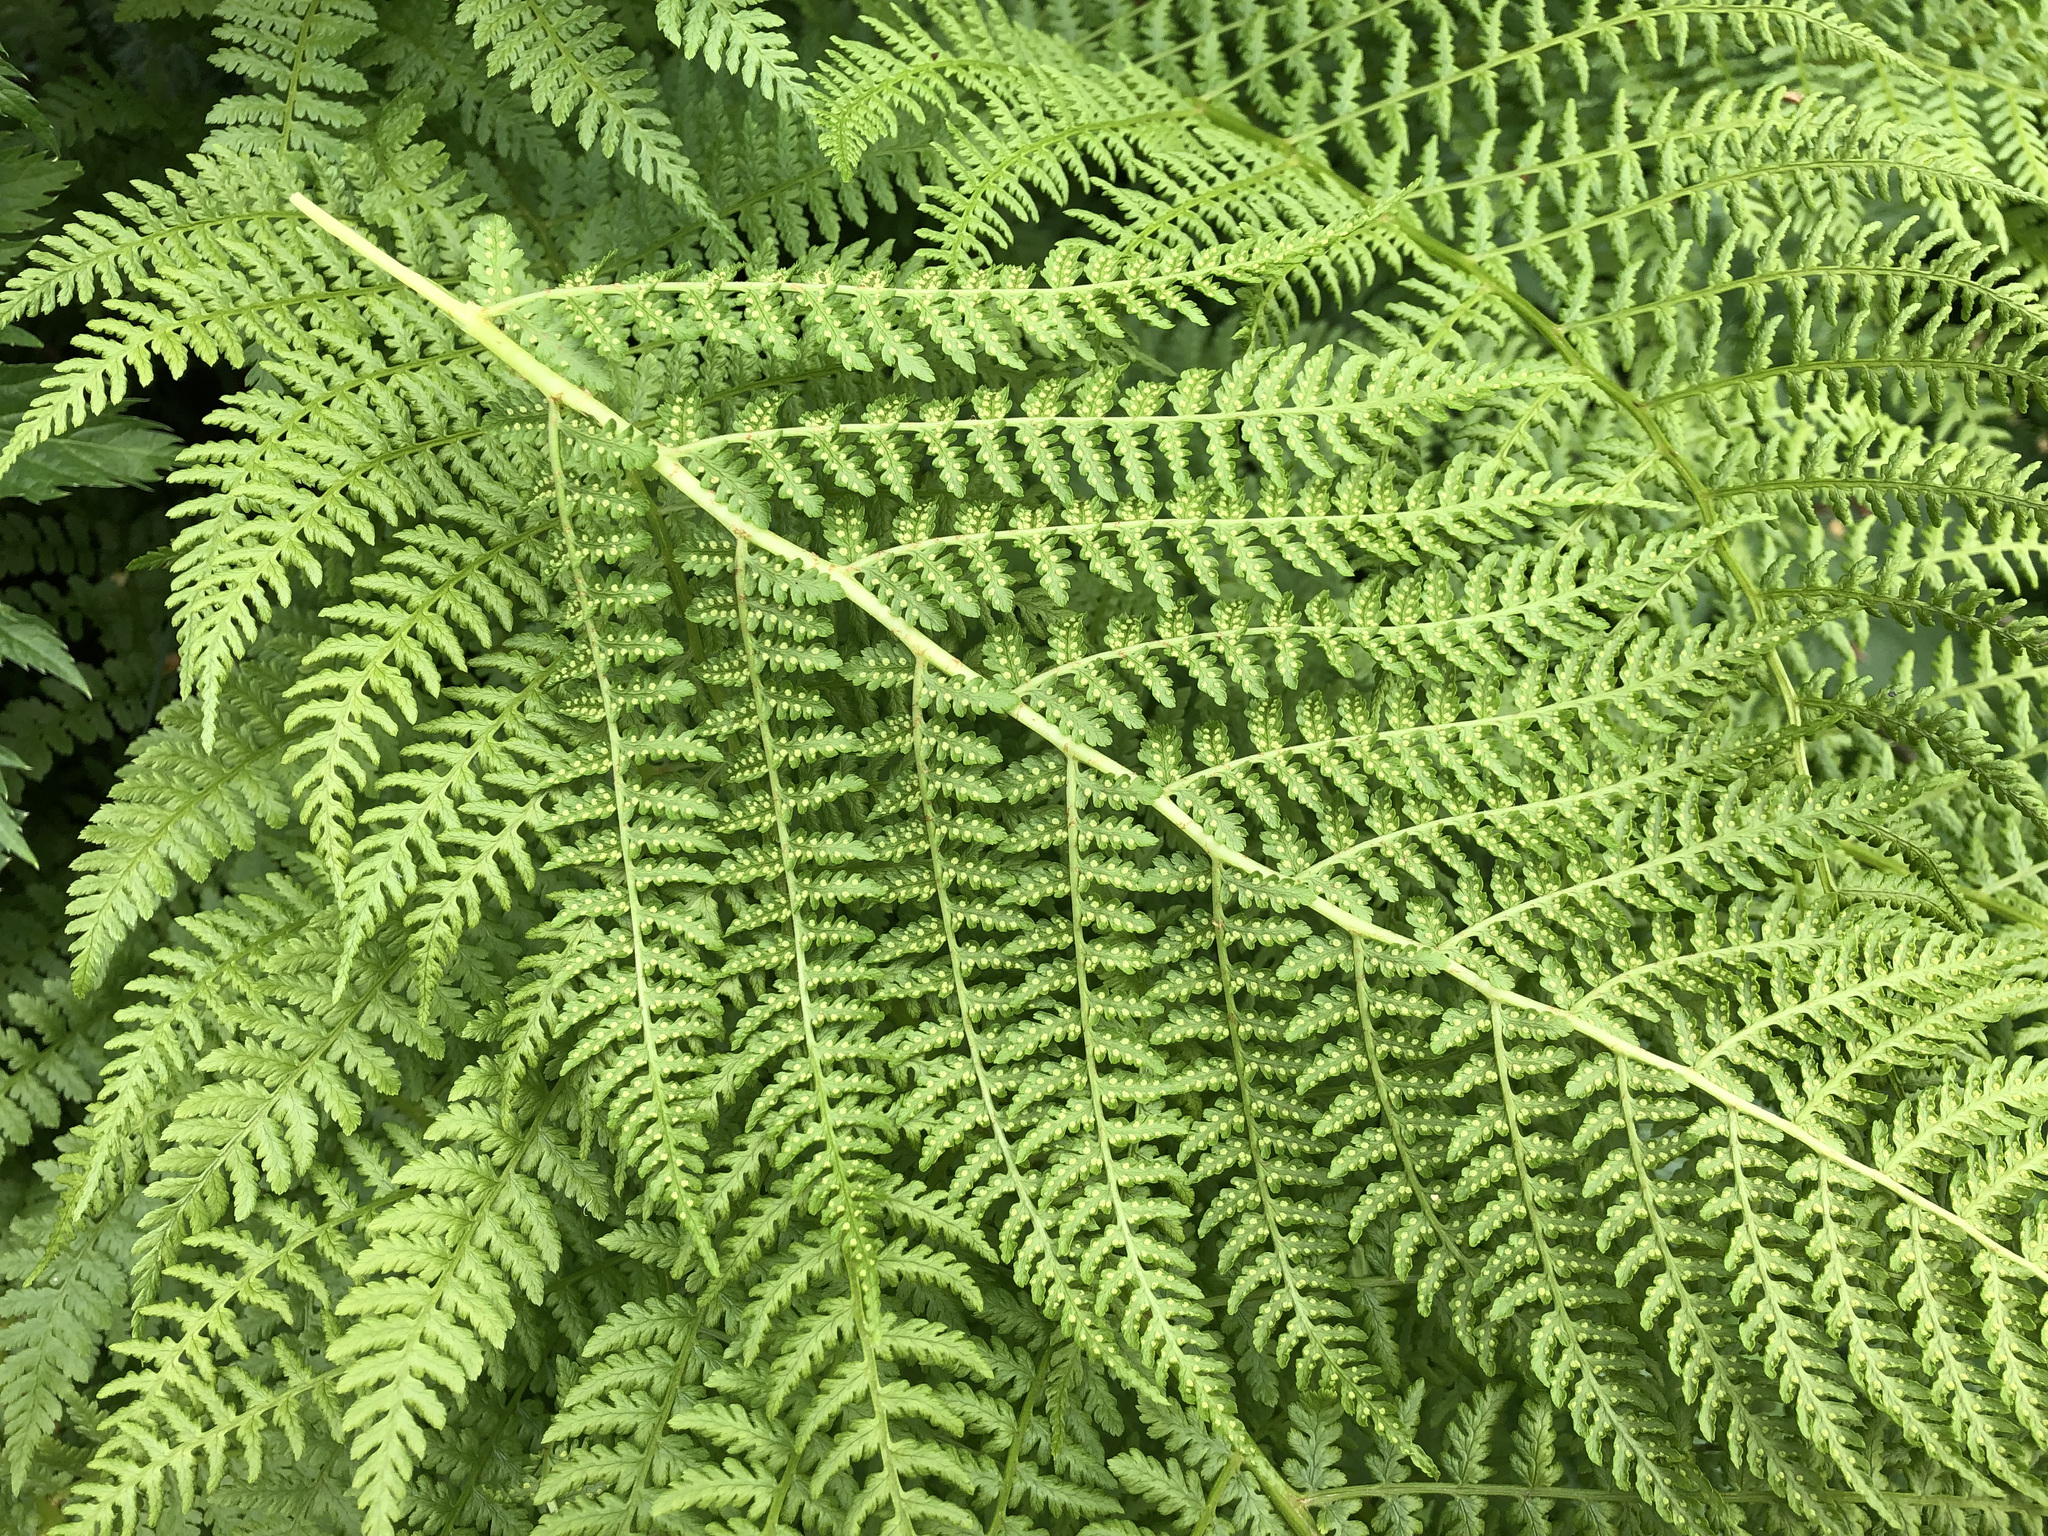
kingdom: Plantae
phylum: Tracheophyta
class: Polypodiopsida
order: Polypodiales
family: Athyriaceae
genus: Pseudathyrium
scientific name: Pseudathyrium alpestre
